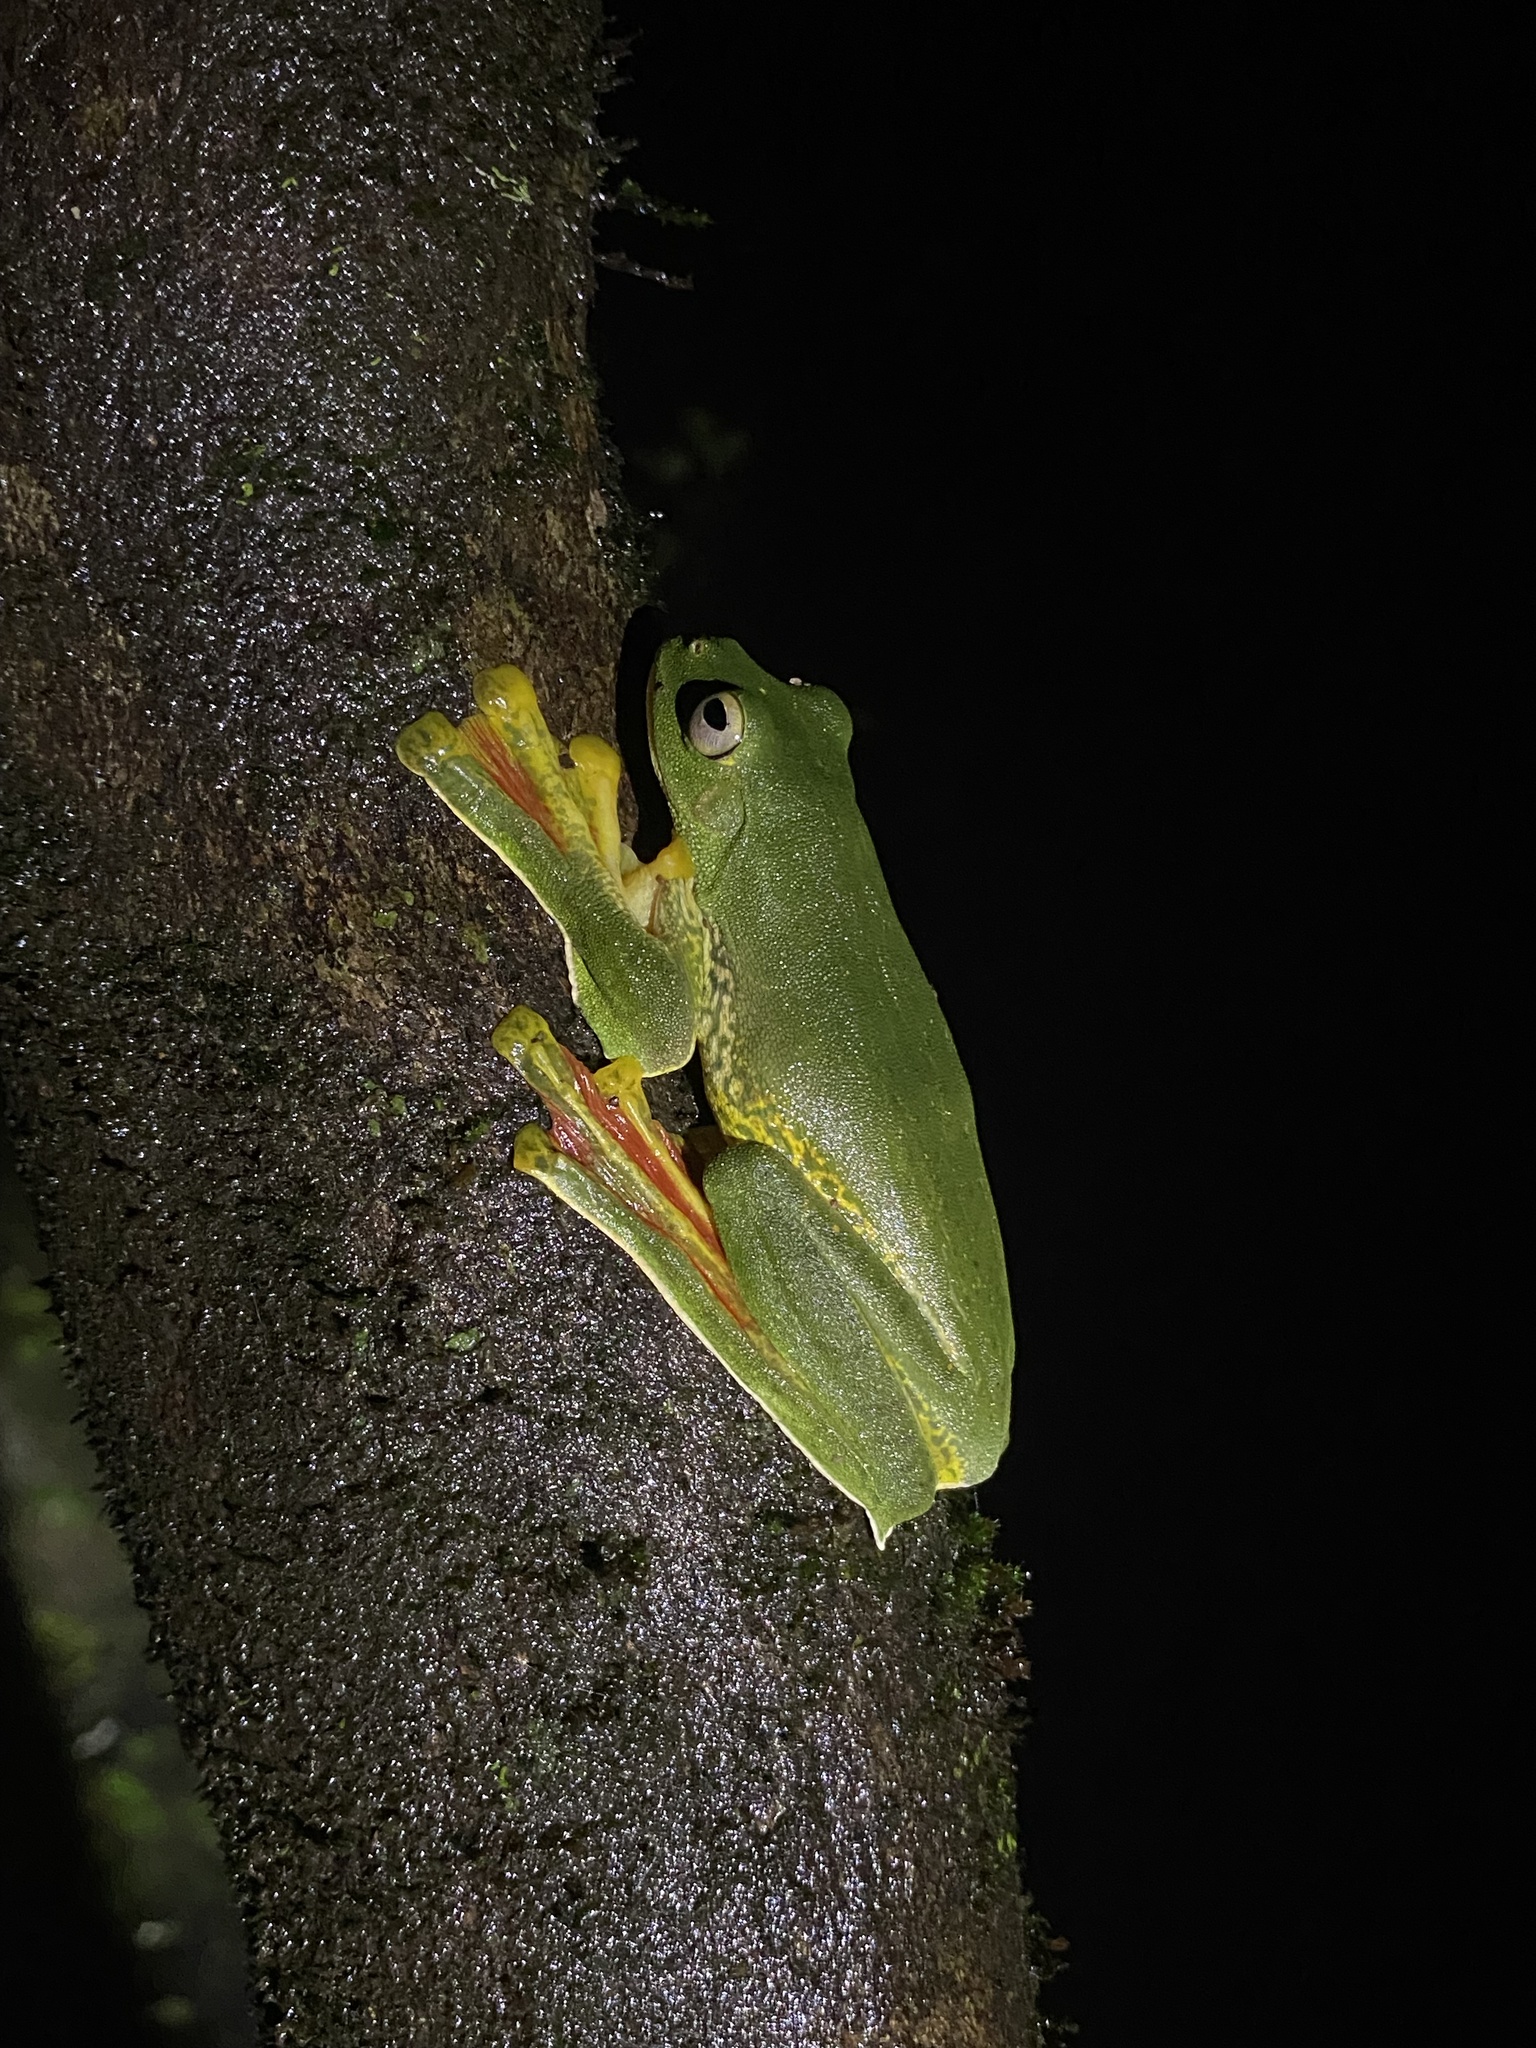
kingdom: Animalia
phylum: Chordata
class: Amphibia
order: Anura
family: Rhacophoridae
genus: Rhacophorus
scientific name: Rhacophorus malabaricus
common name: Malabar gliding frog
